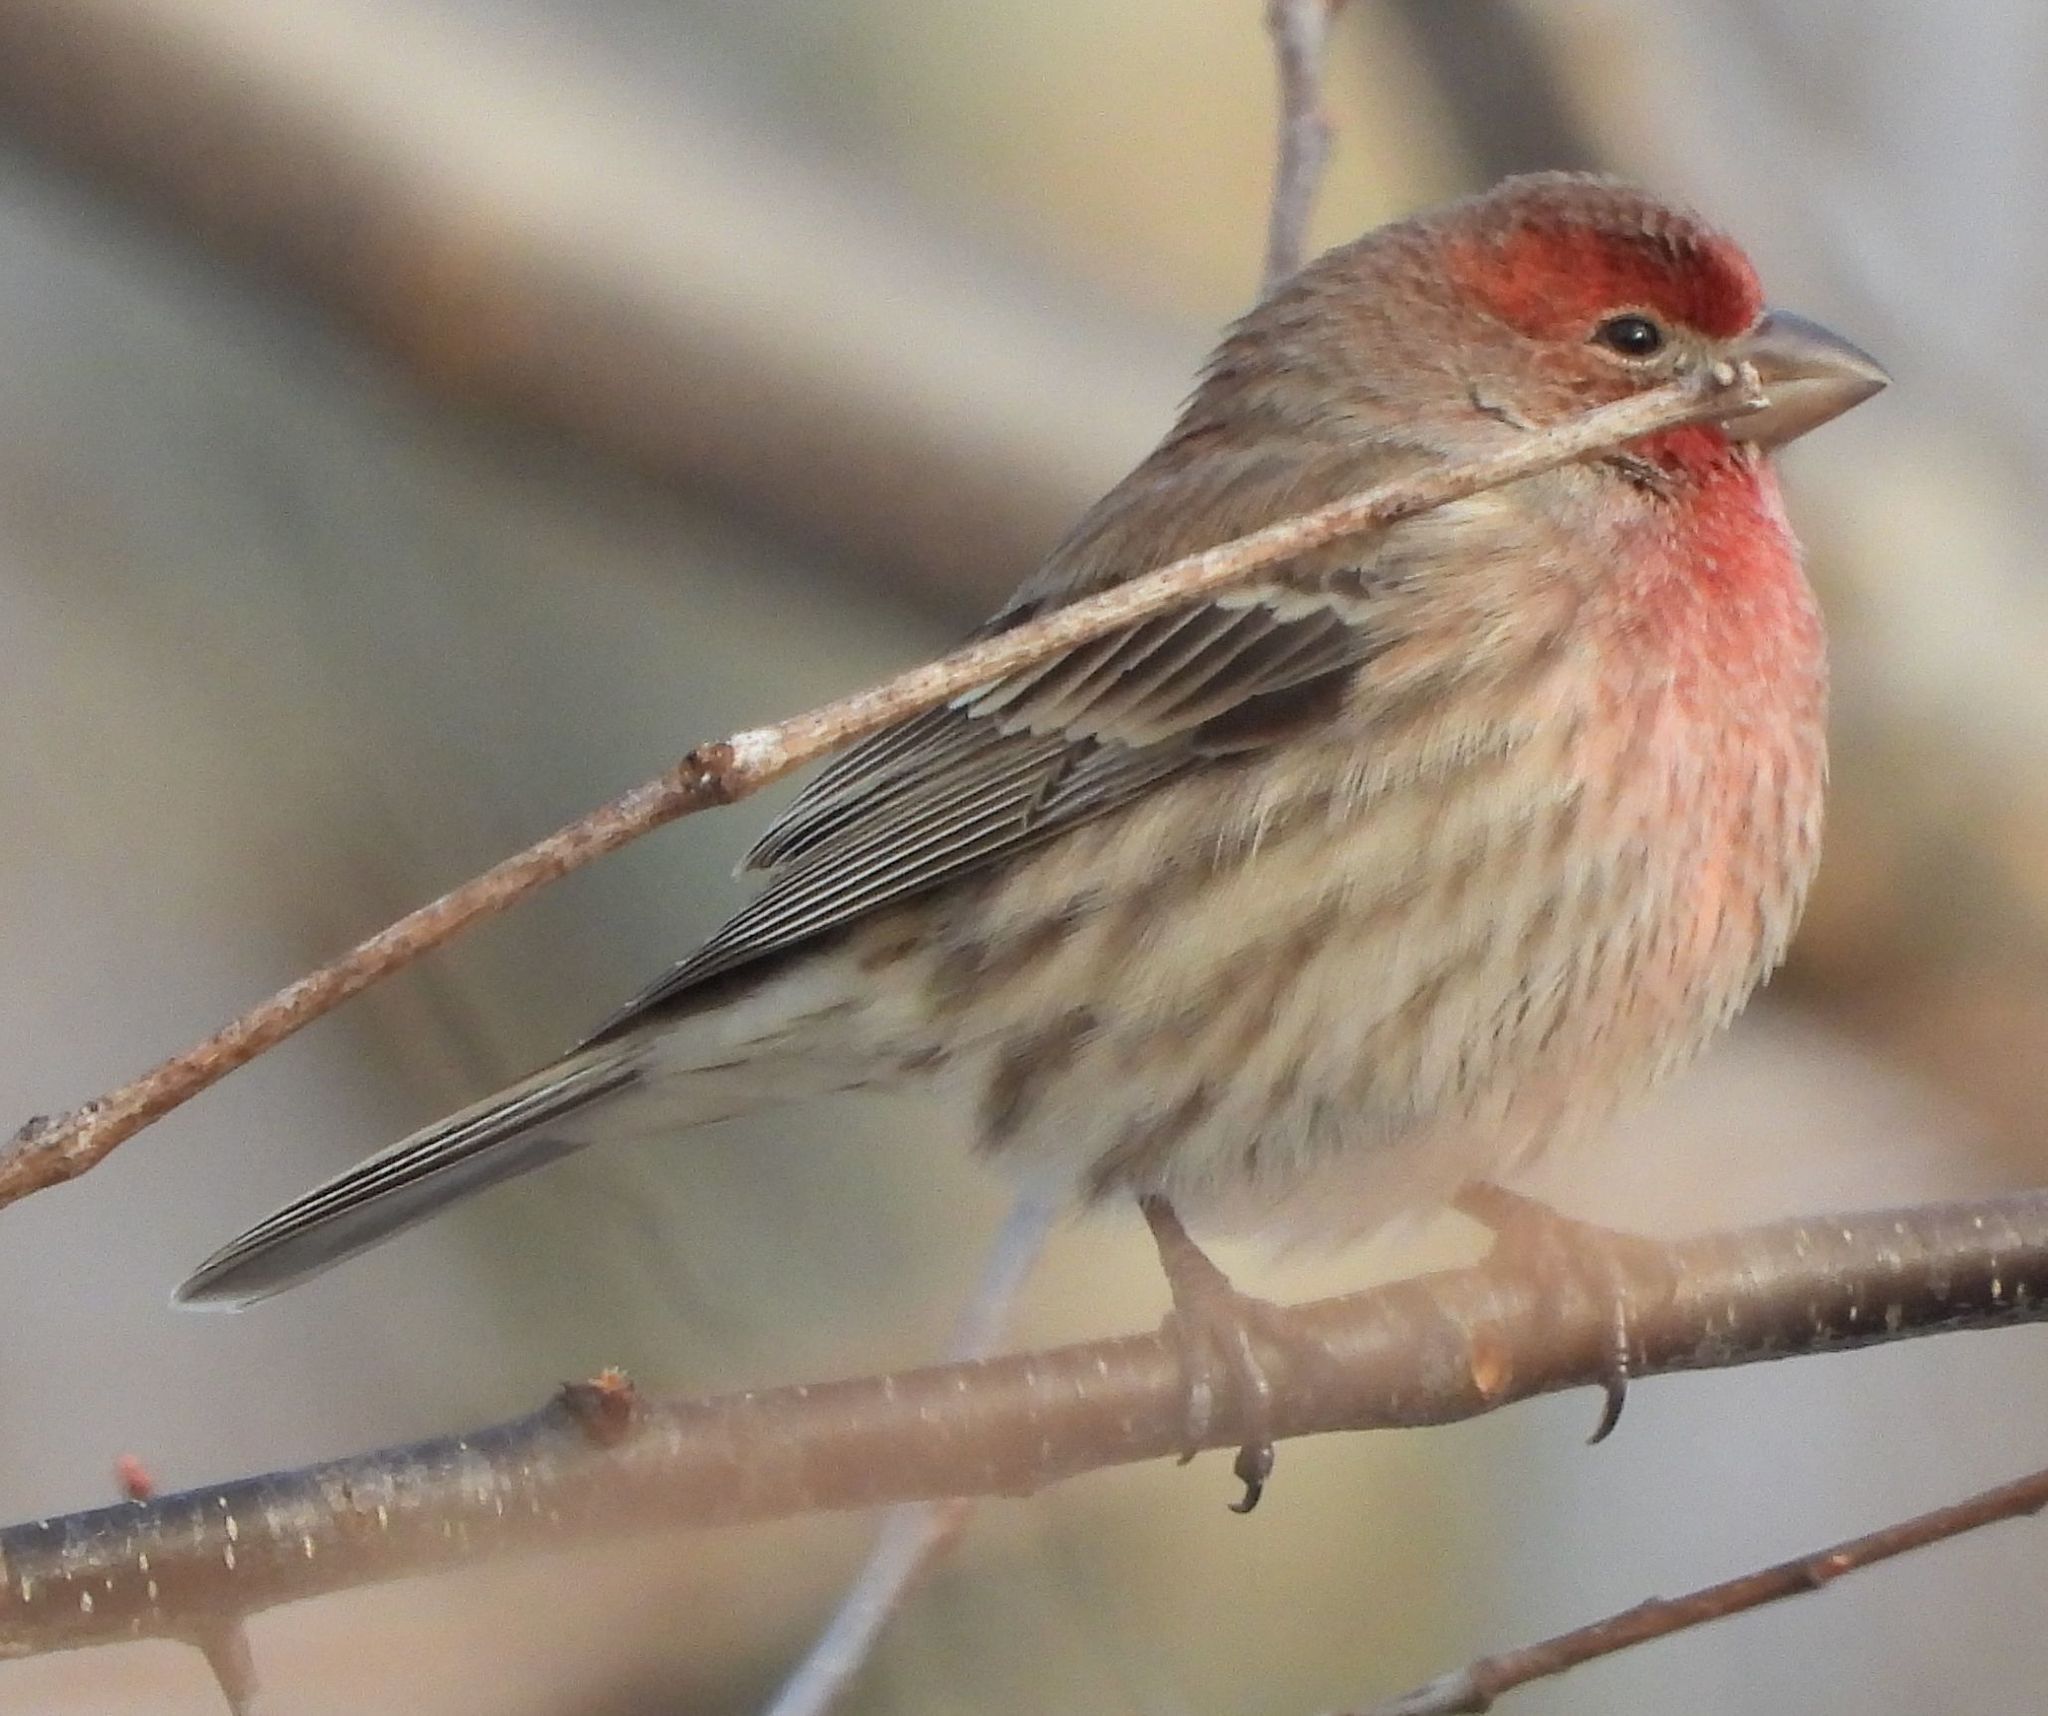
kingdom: Animalia
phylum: Chordata
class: Aves
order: Passeriformes
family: Fringillidae
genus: Haemorhous
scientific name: Haemorhous mexicanus
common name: House finch
